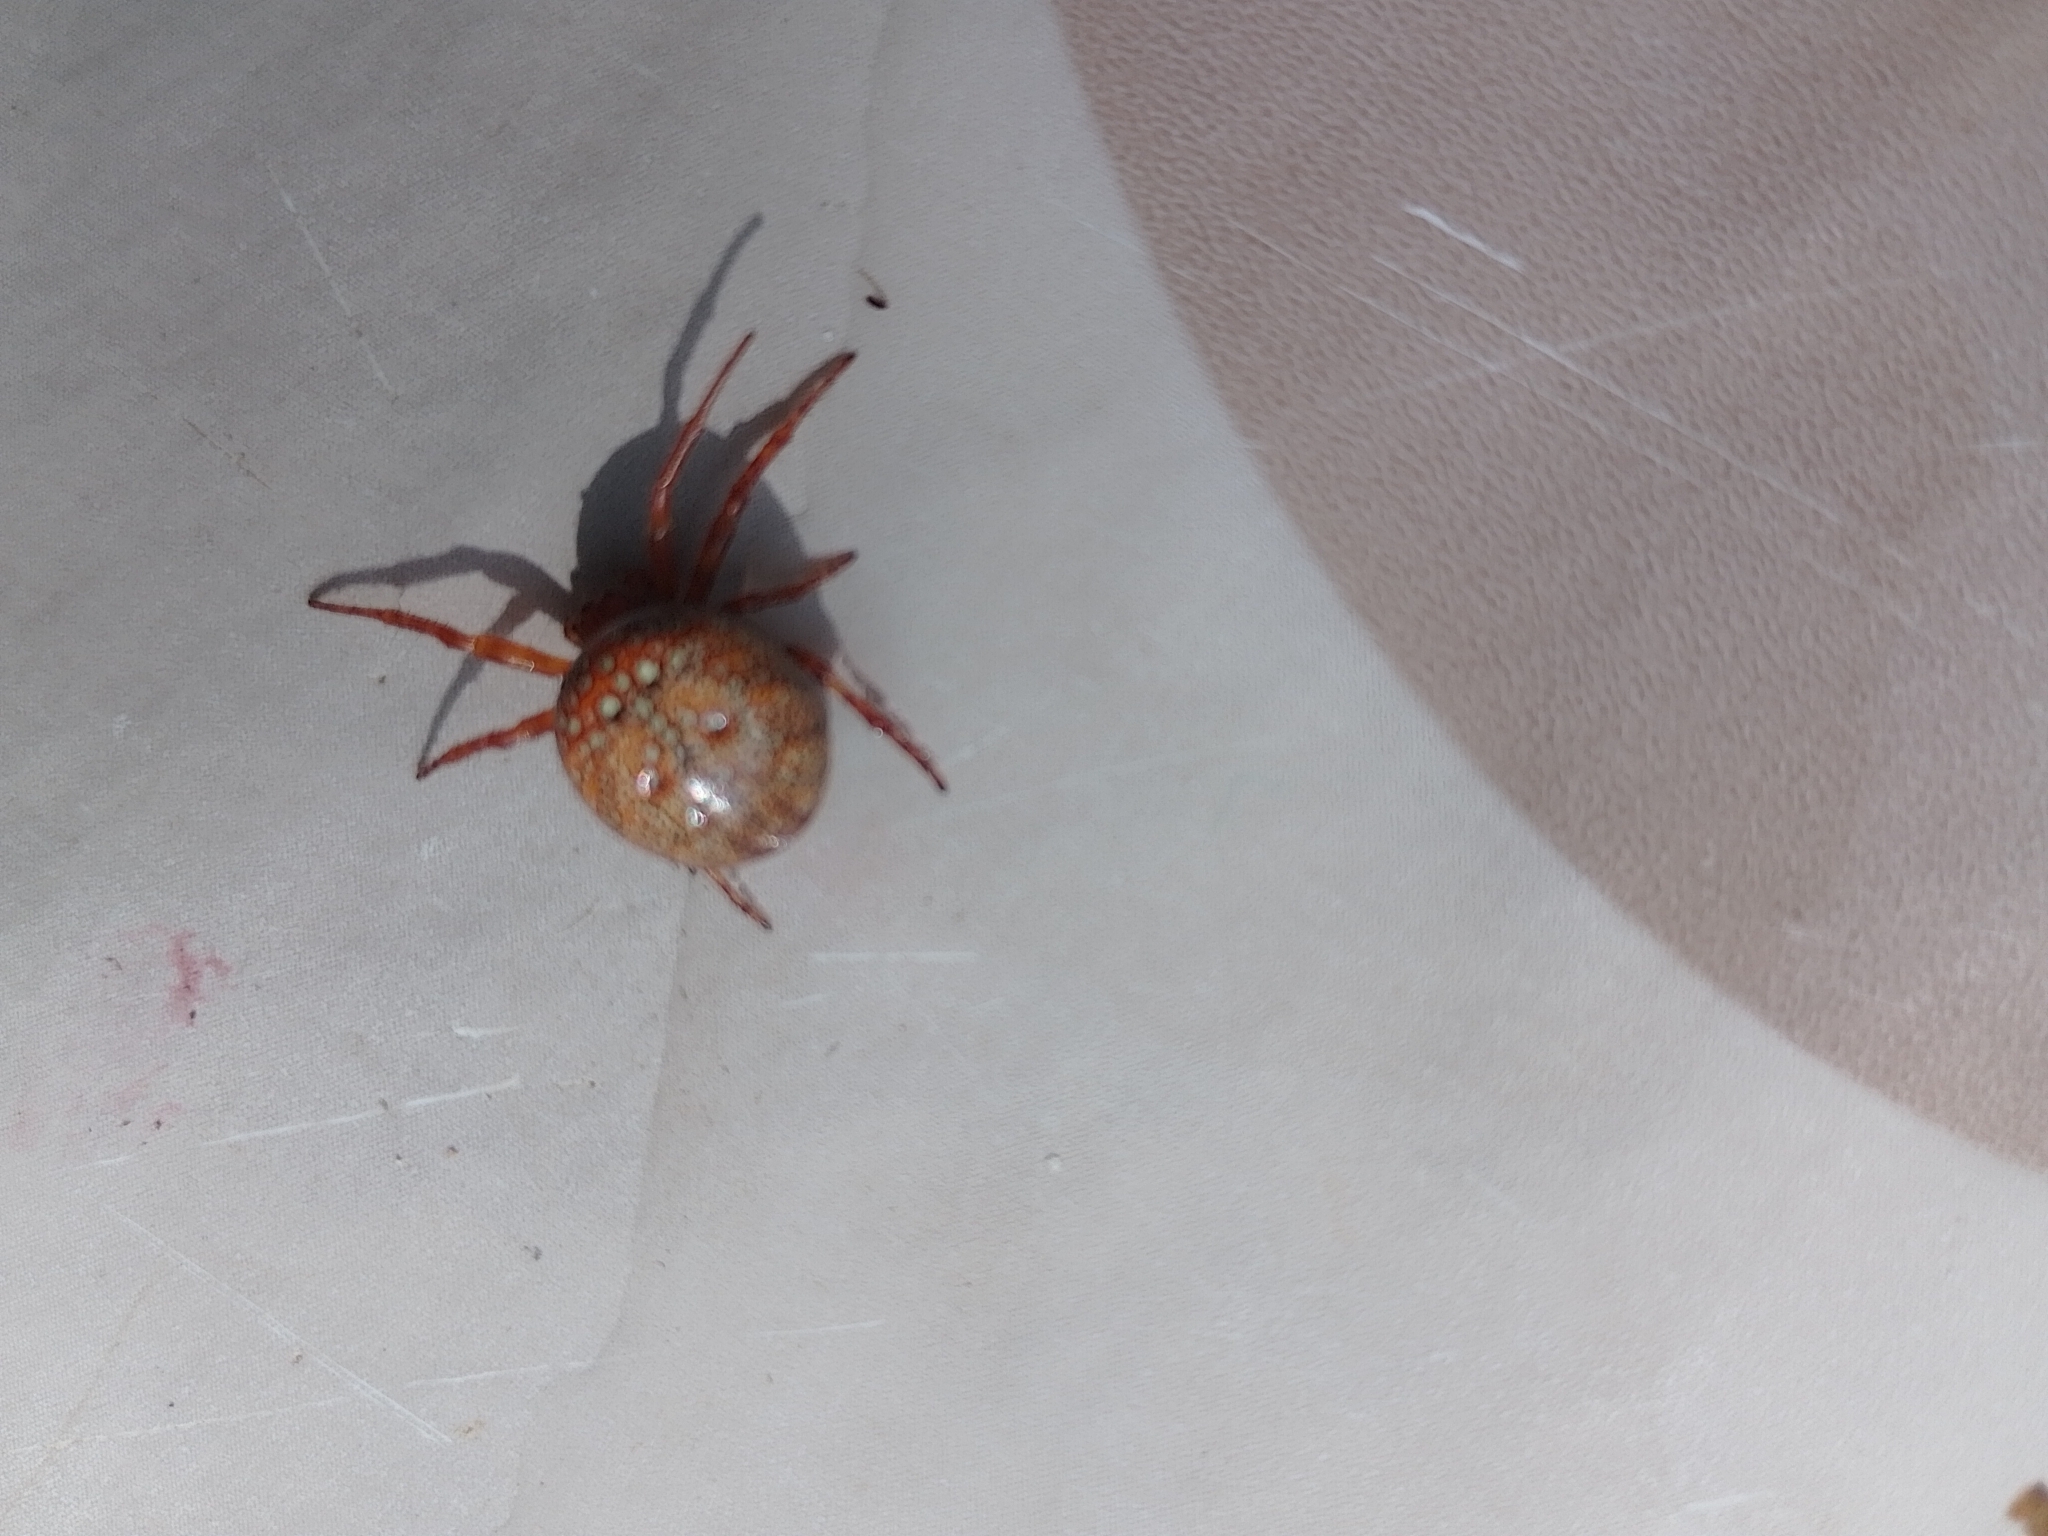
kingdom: Animalia
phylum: Arthropoda
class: Arachnida
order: Araneae
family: Araneidae
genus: Araneus
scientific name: Araneus alsine
